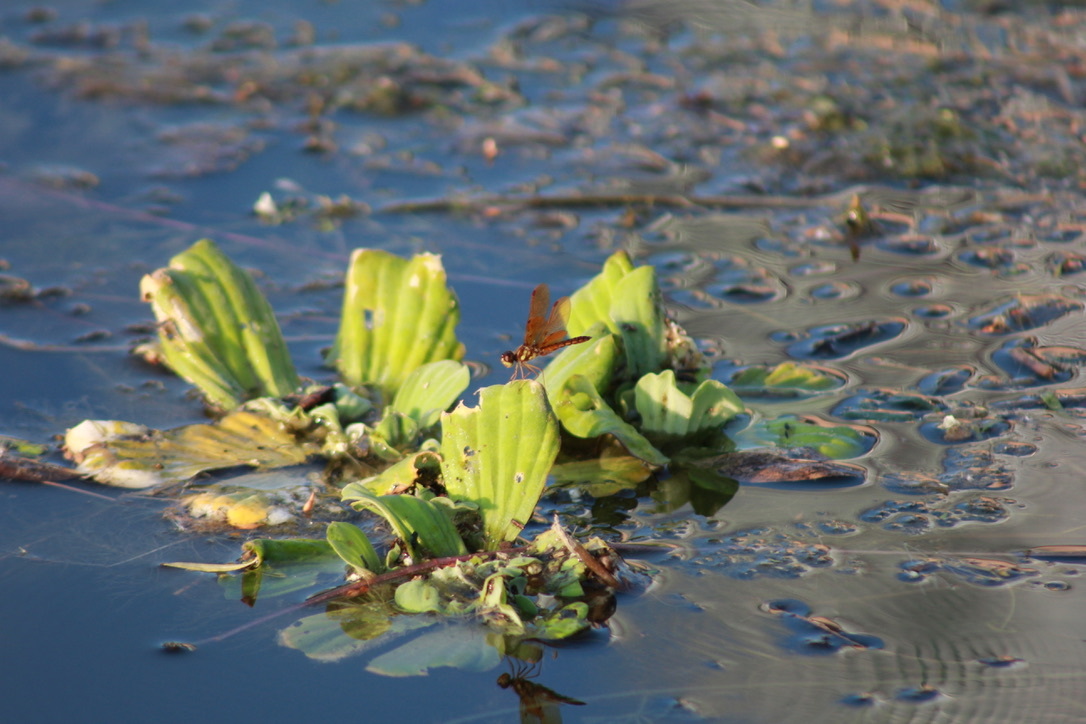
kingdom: Animalia
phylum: Arthropoda
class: Insecta
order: Odonata
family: Libellulidae
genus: Perithemis
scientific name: Perithemis tenera
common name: Eastern amberwing
